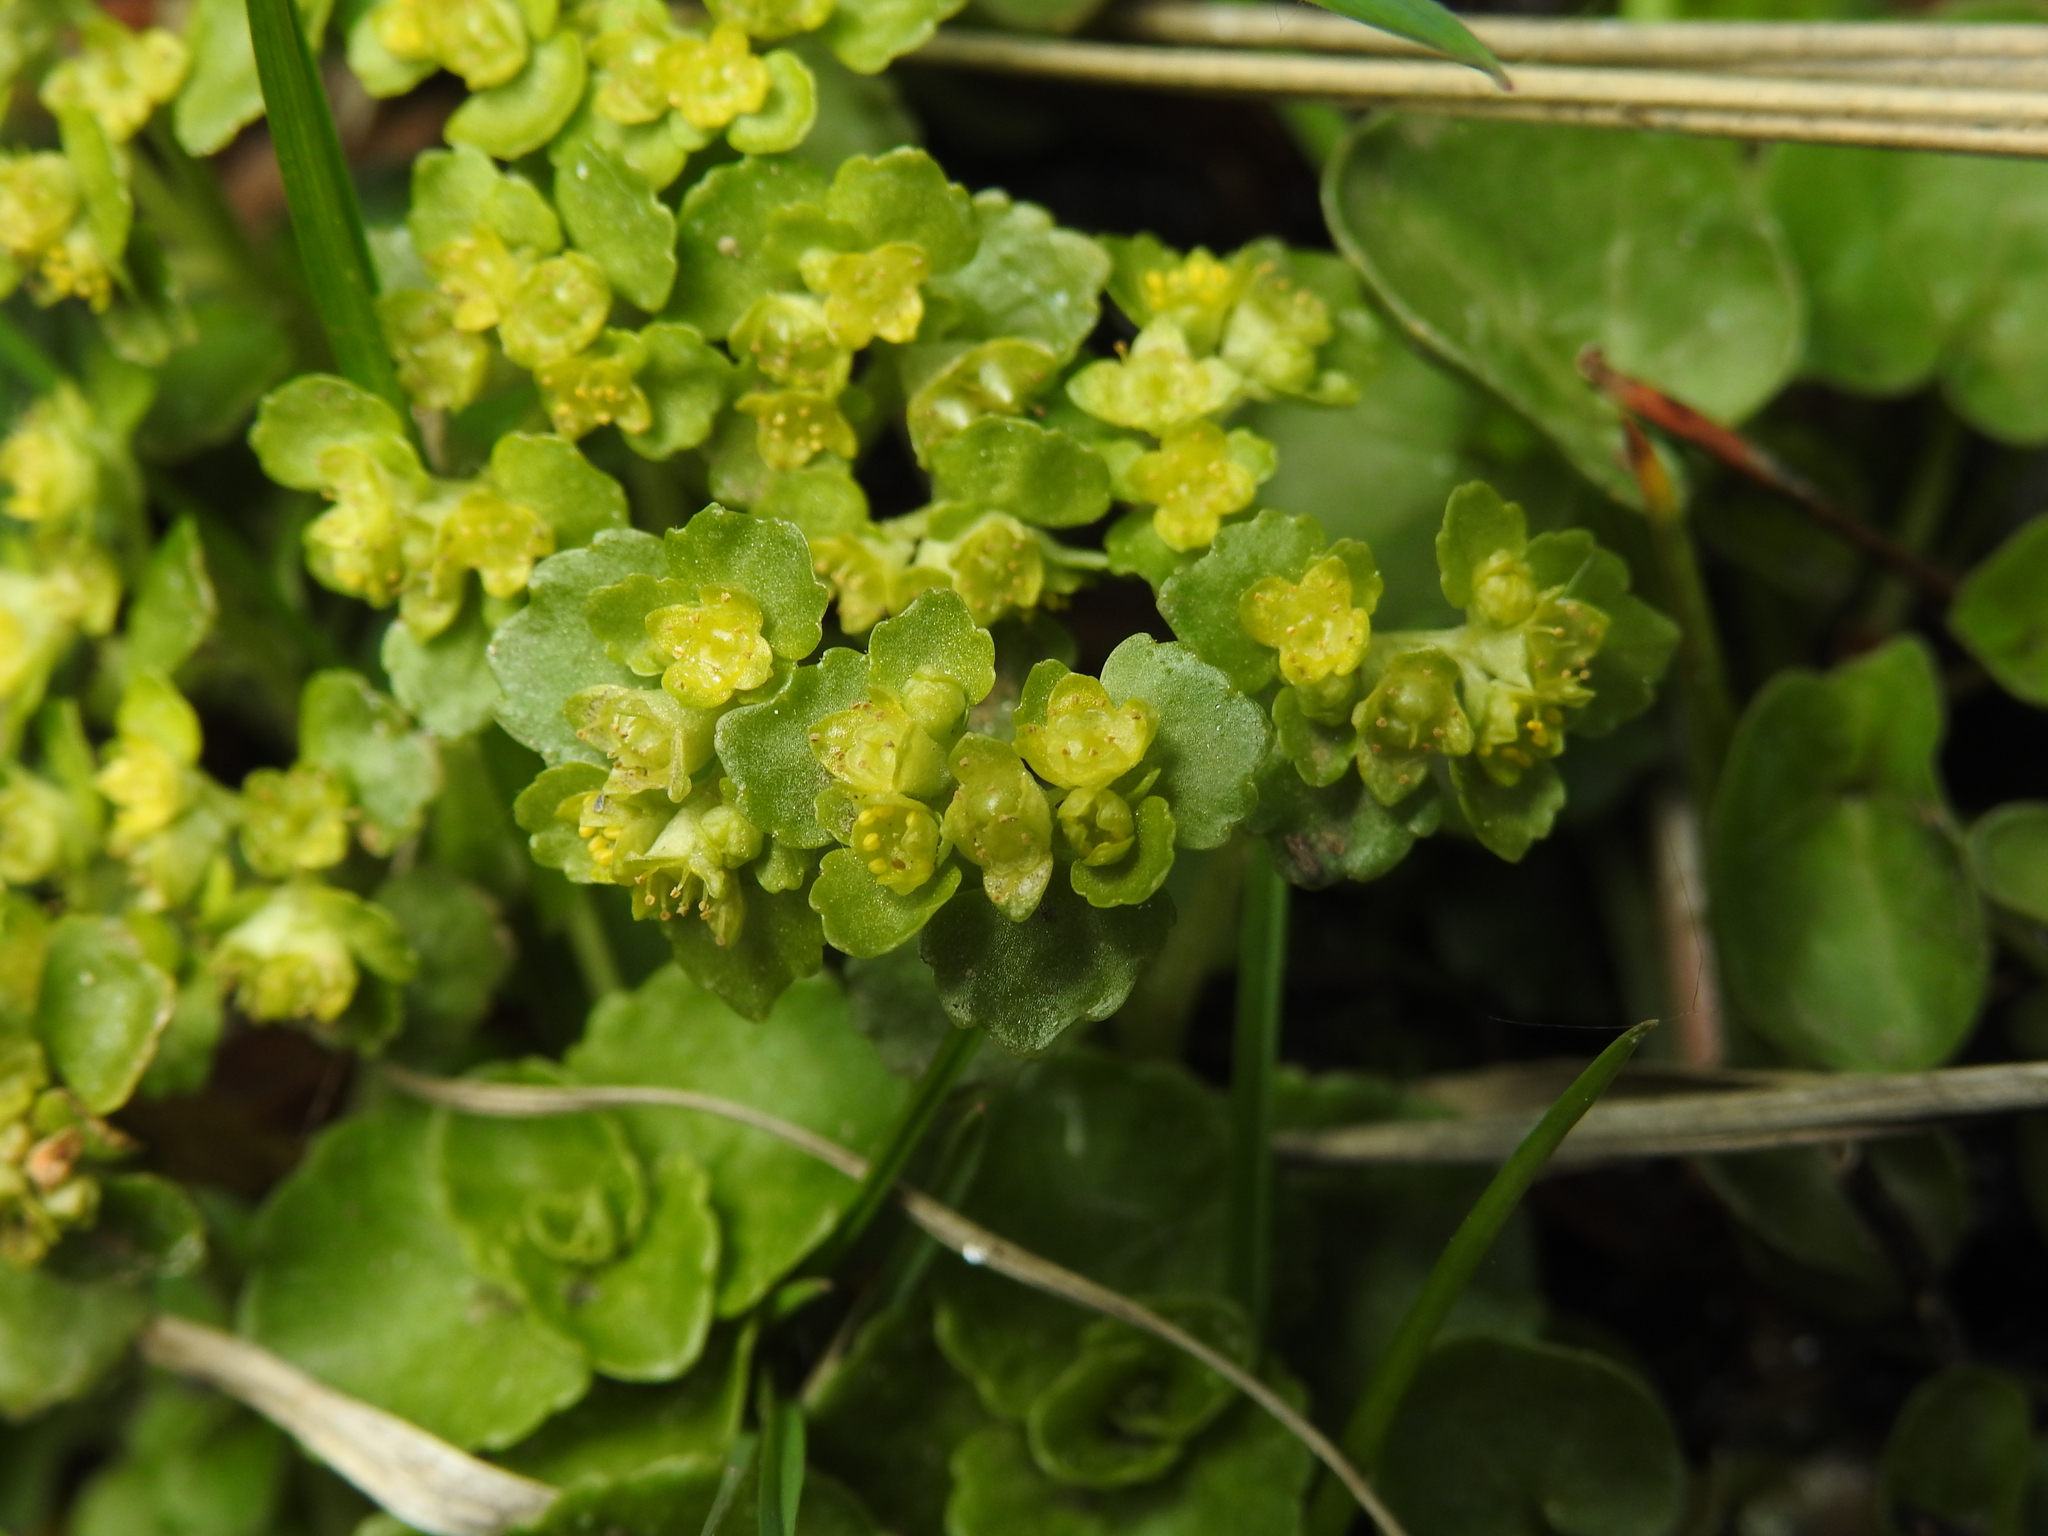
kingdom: Plantae
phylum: Tracheophyta
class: Magnoliopsida
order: Saxifragales
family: Saxifragaceae
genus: Chrysosplenium
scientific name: Chrysosplenium oppositifolium
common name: Opposite-leaved golden-saxifrage
